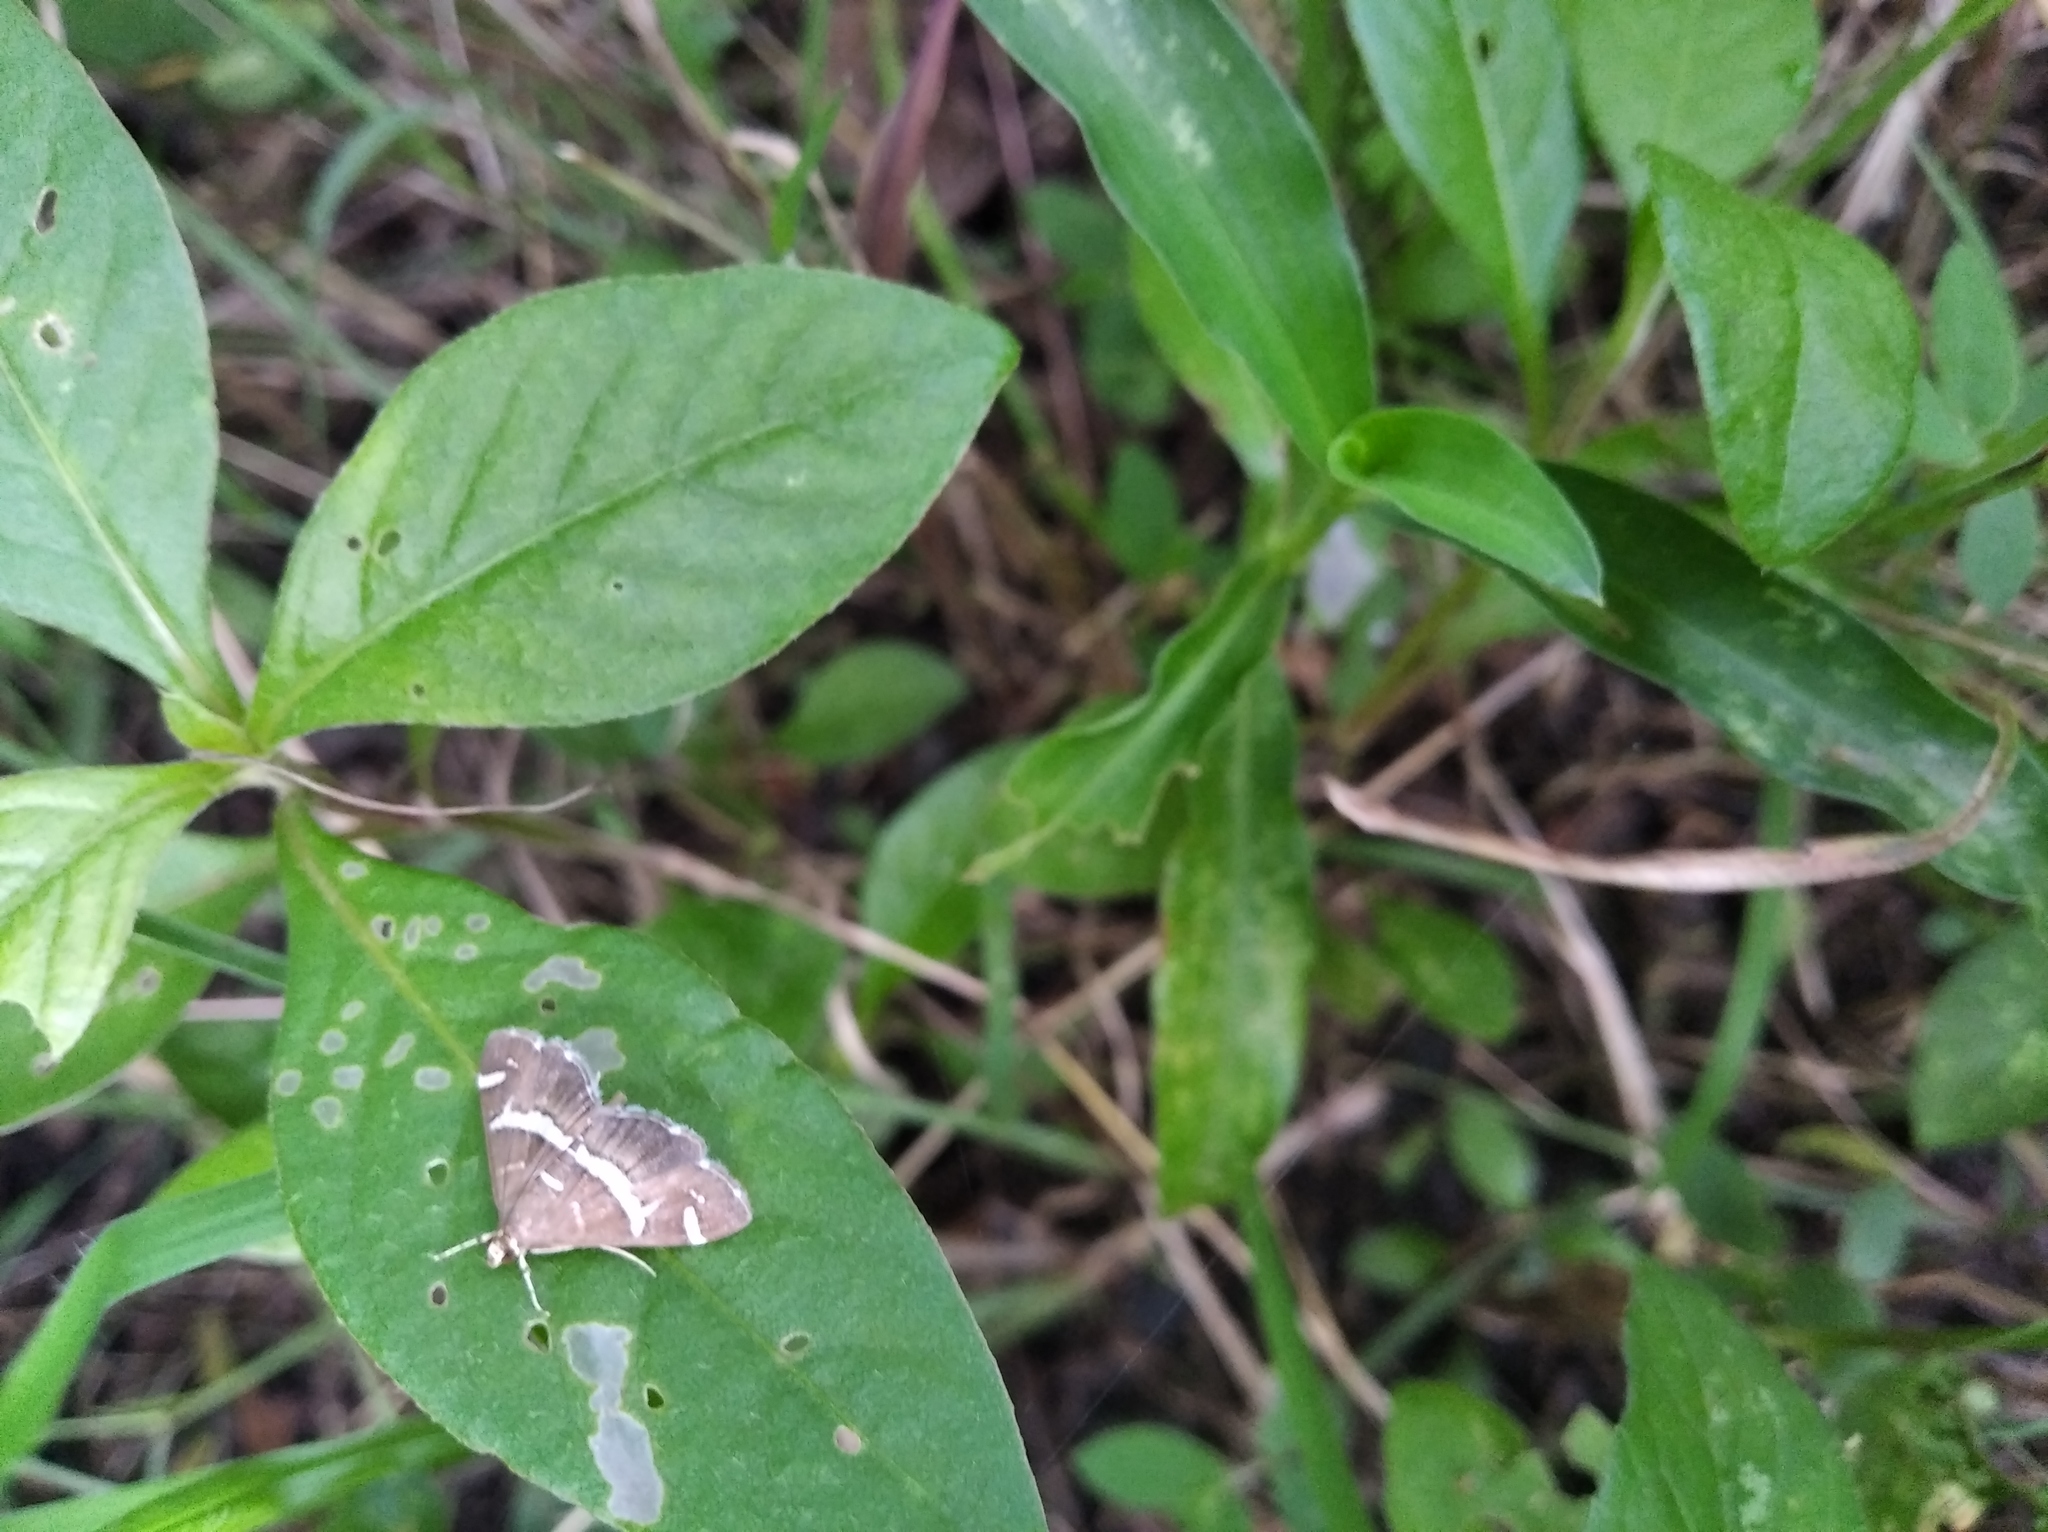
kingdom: Animalia
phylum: Arthropoda
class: Insecta
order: Lepidoptera
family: Crambidae
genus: Spoladea
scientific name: Spoladea recurvalis
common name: Beet webworm moth
